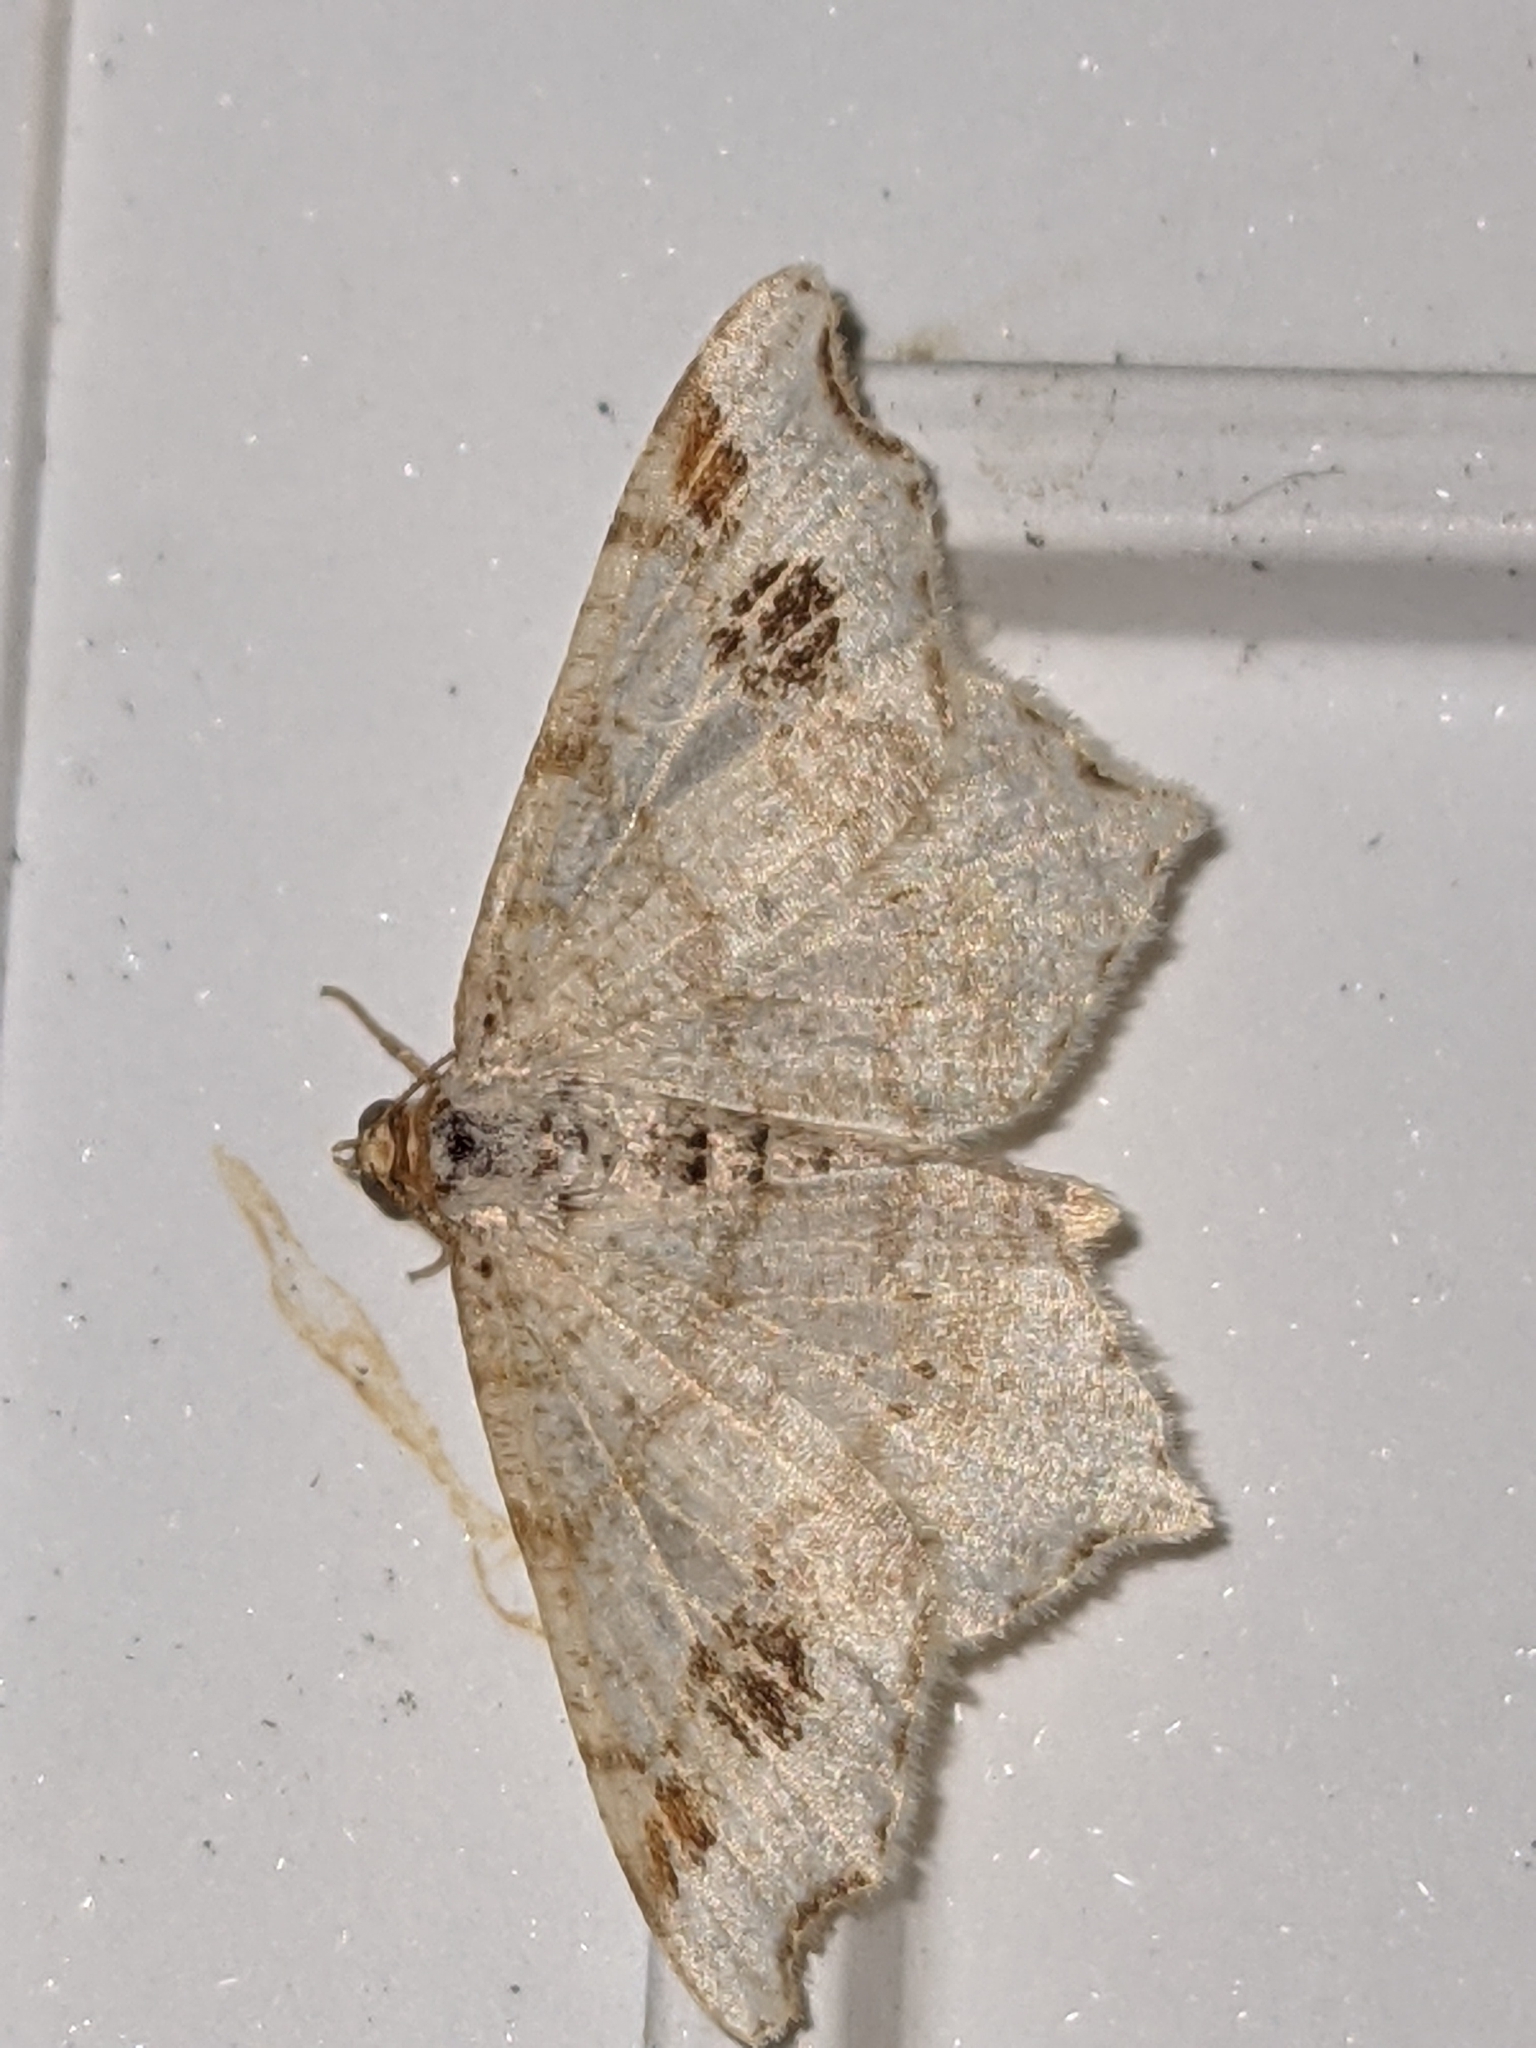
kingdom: Animalia
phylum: Arthropoda
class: Insecta
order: Lepidoptera
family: Geometridae
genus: Macaria
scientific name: Macaria aemulataria
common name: Common angle
